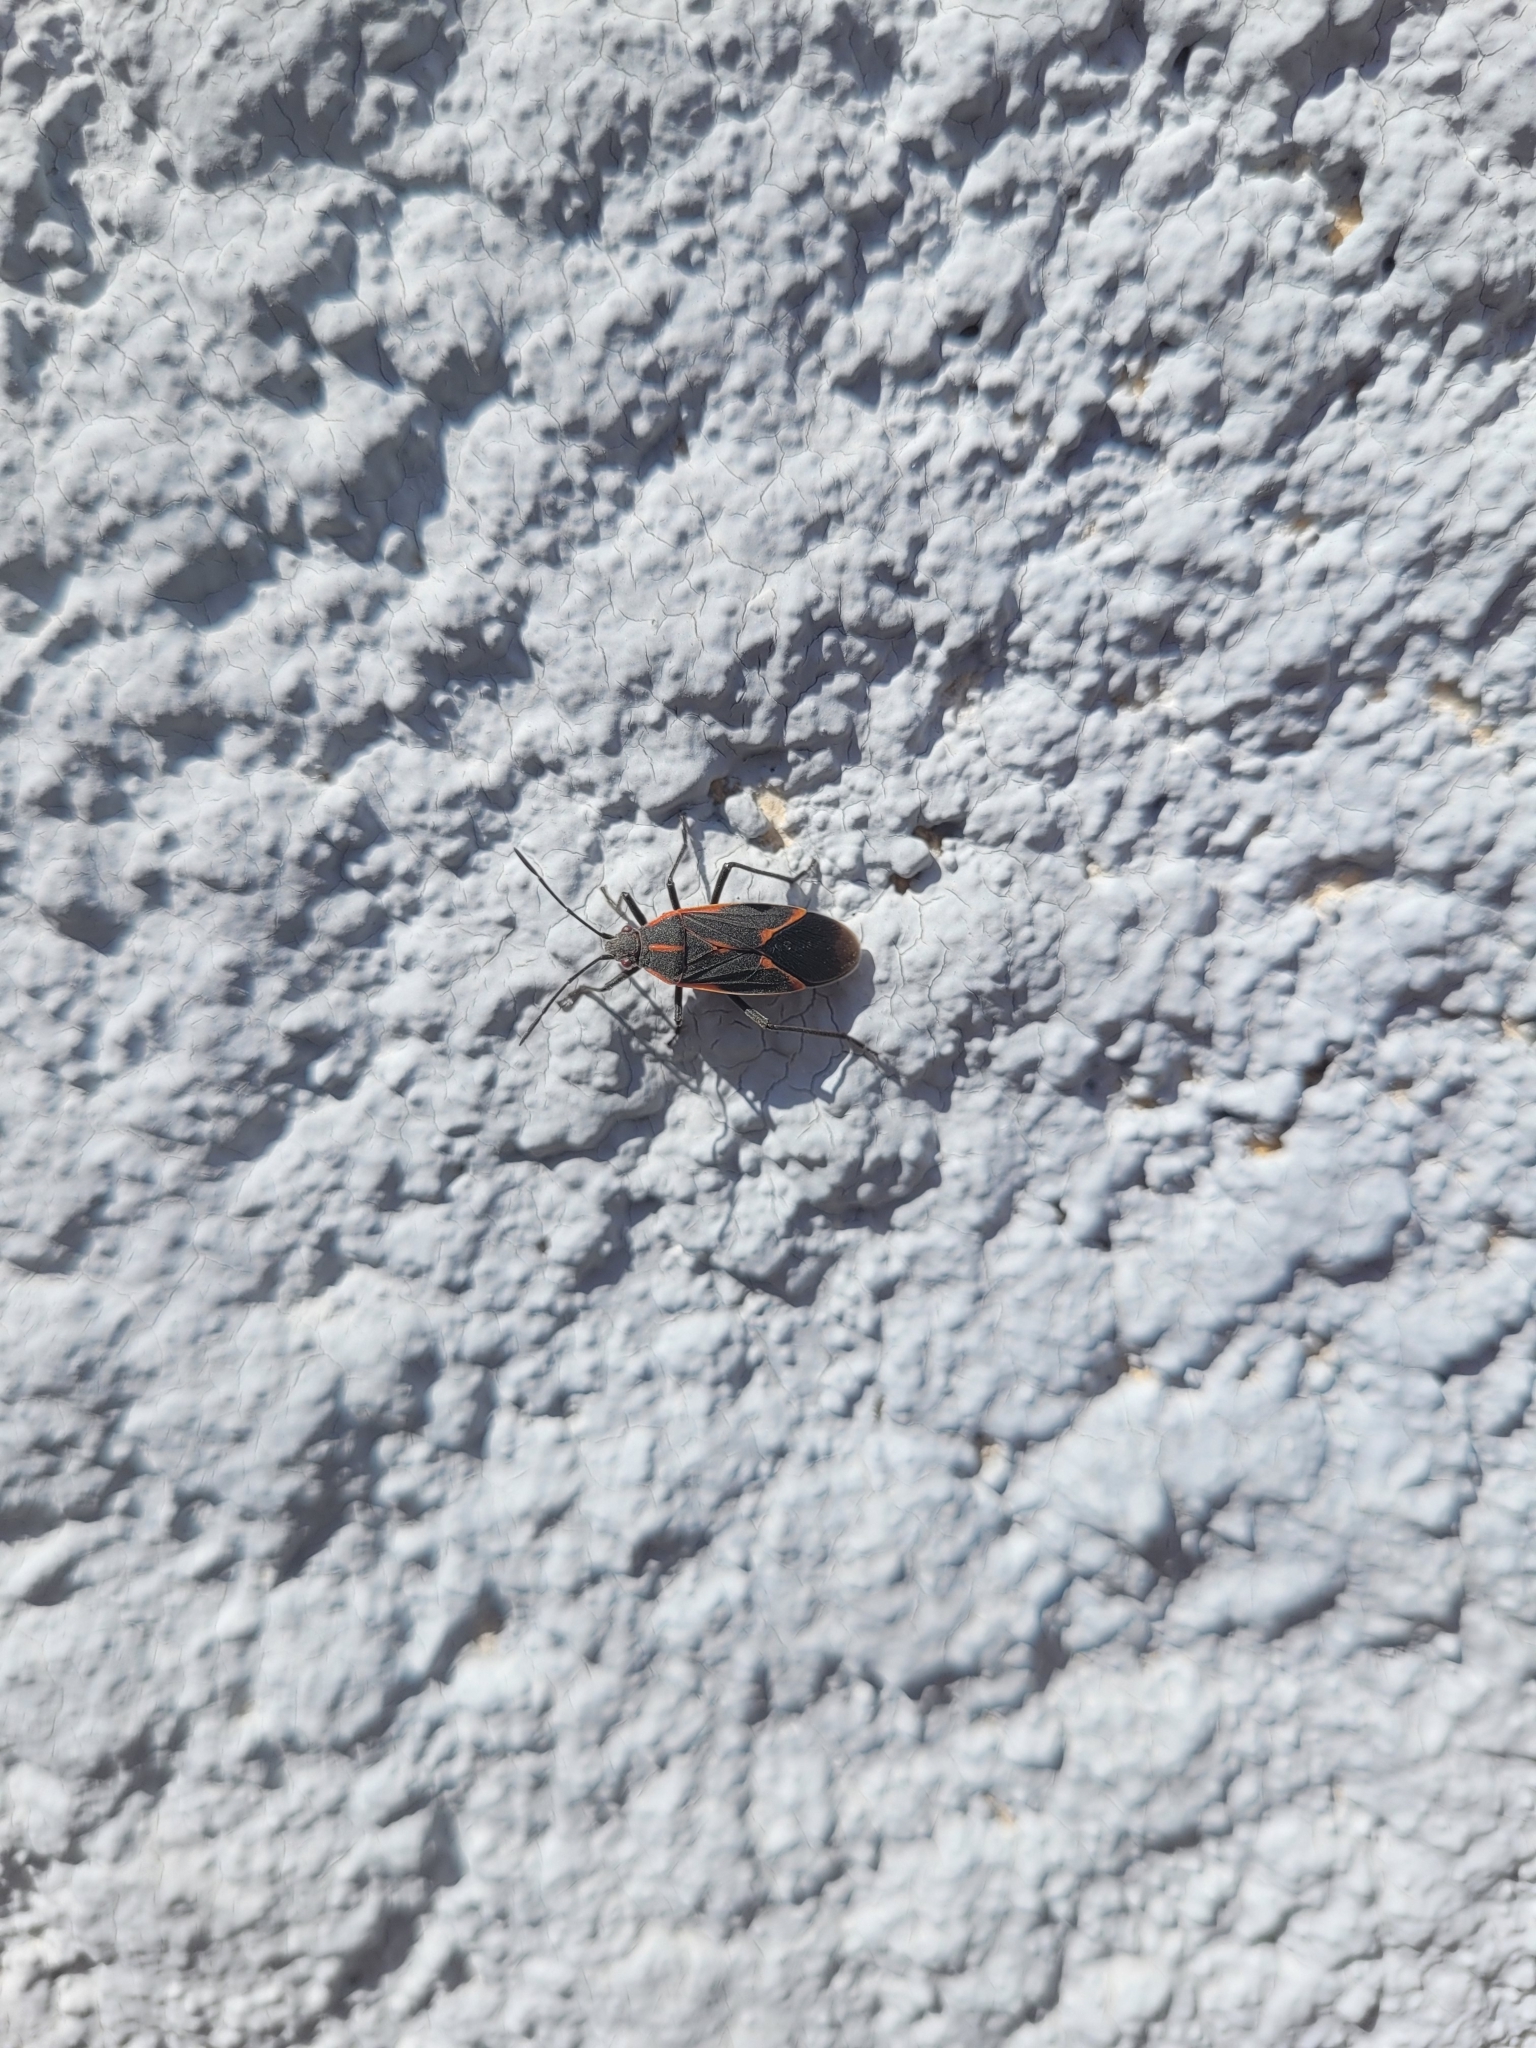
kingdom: Animalia
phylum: Arthropoda
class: Insecta
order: Hemiptera
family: Rhopalidae
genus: Boisea
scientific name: Boisea trivittata
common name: Boxelder bug
